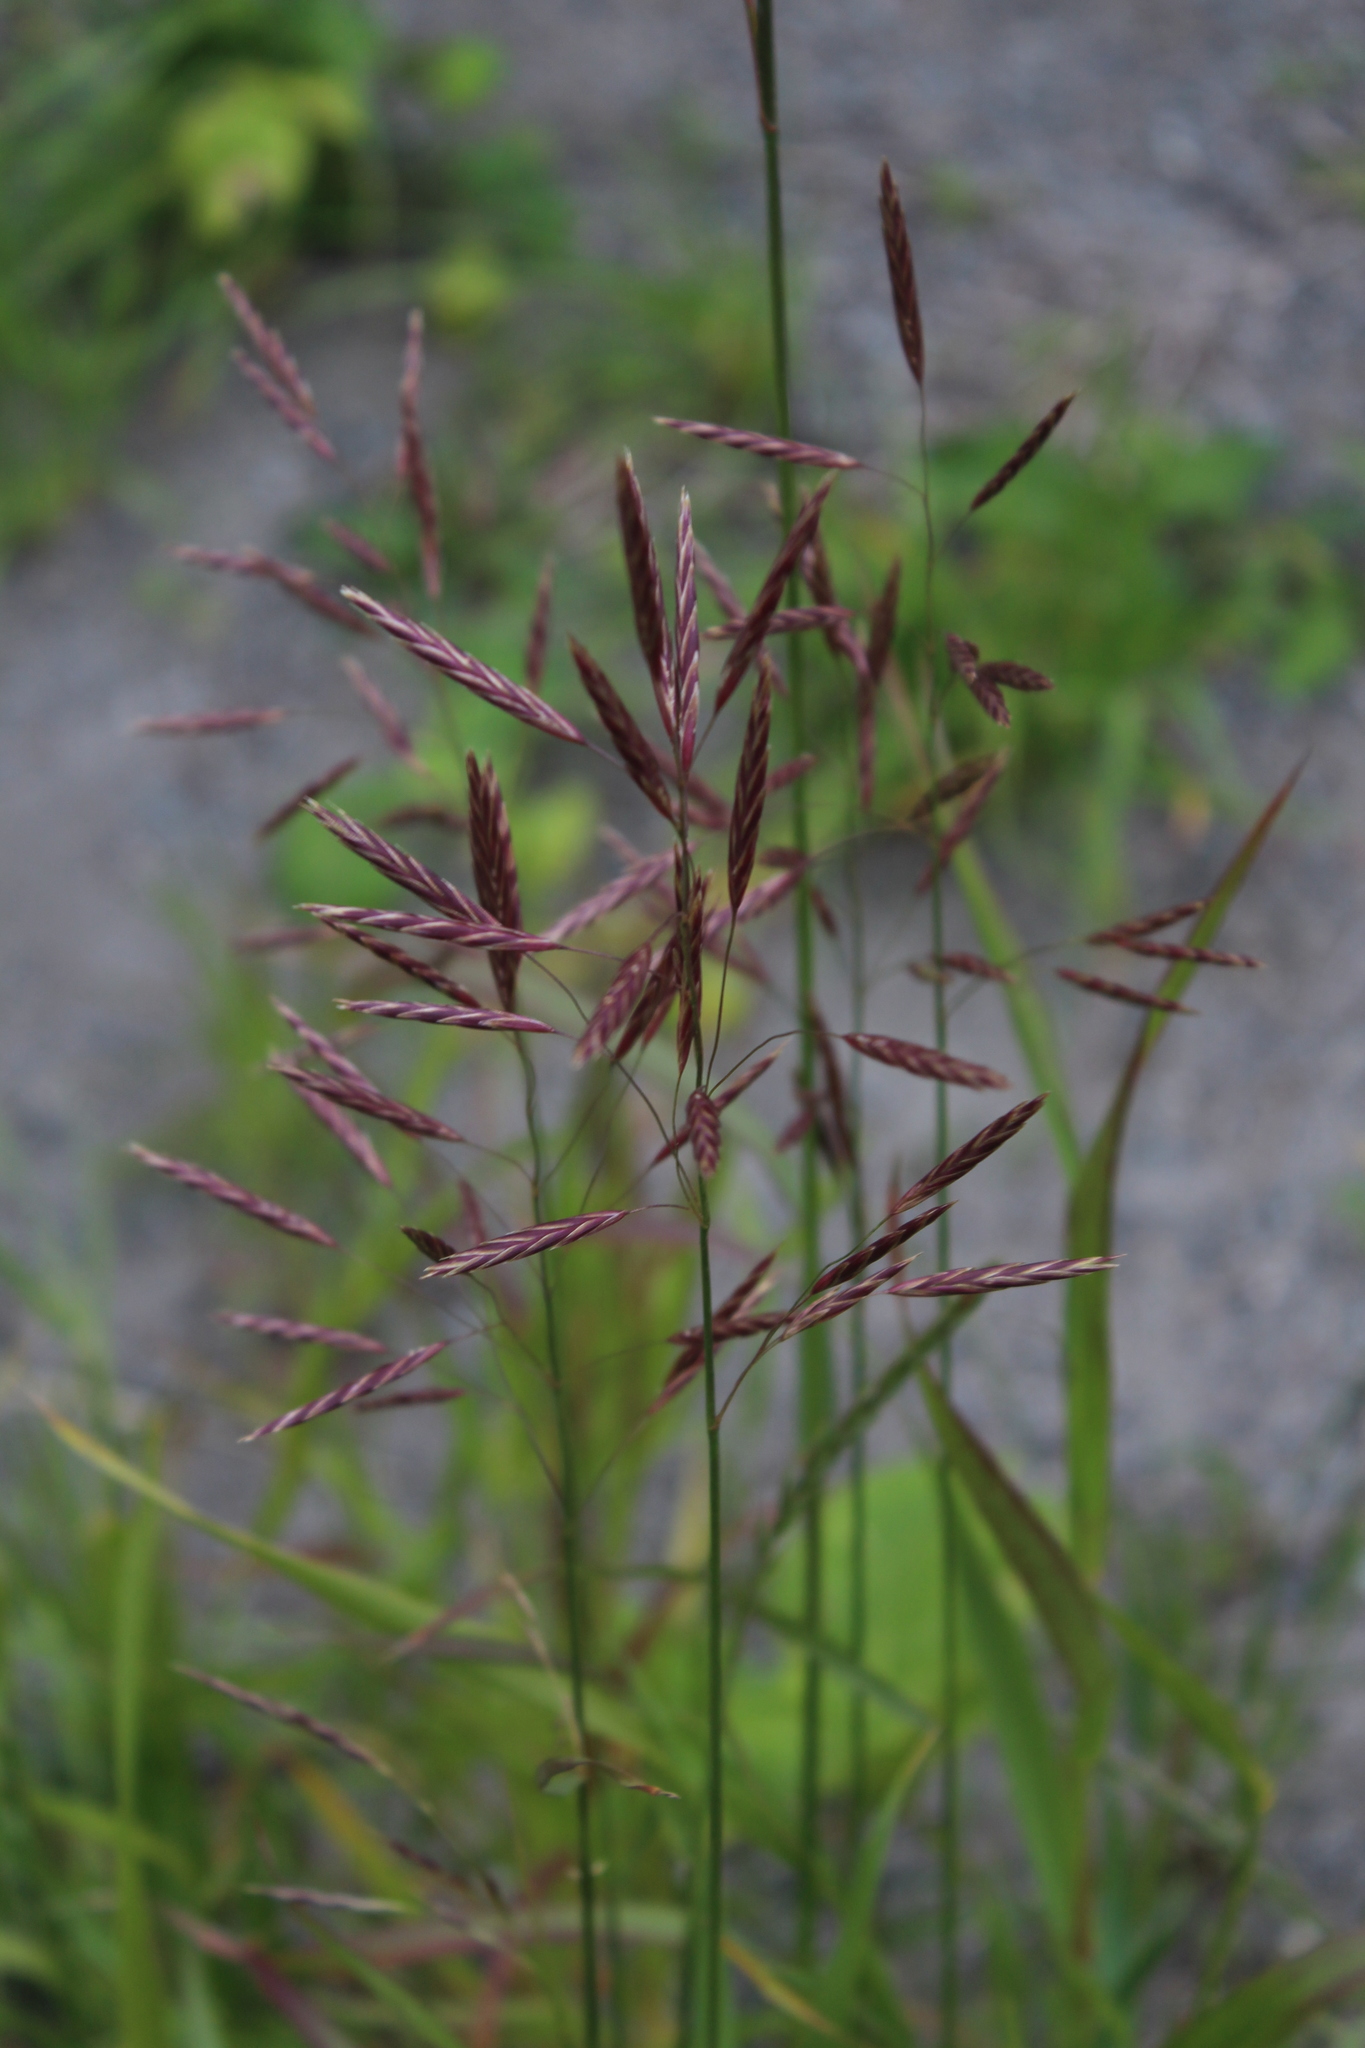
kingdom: Plantae
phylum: Tracheophyta
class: Liliopsida
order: Poales
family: Poaceae
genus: Bromus
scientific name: Bromus inermis
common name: Smooth brome
